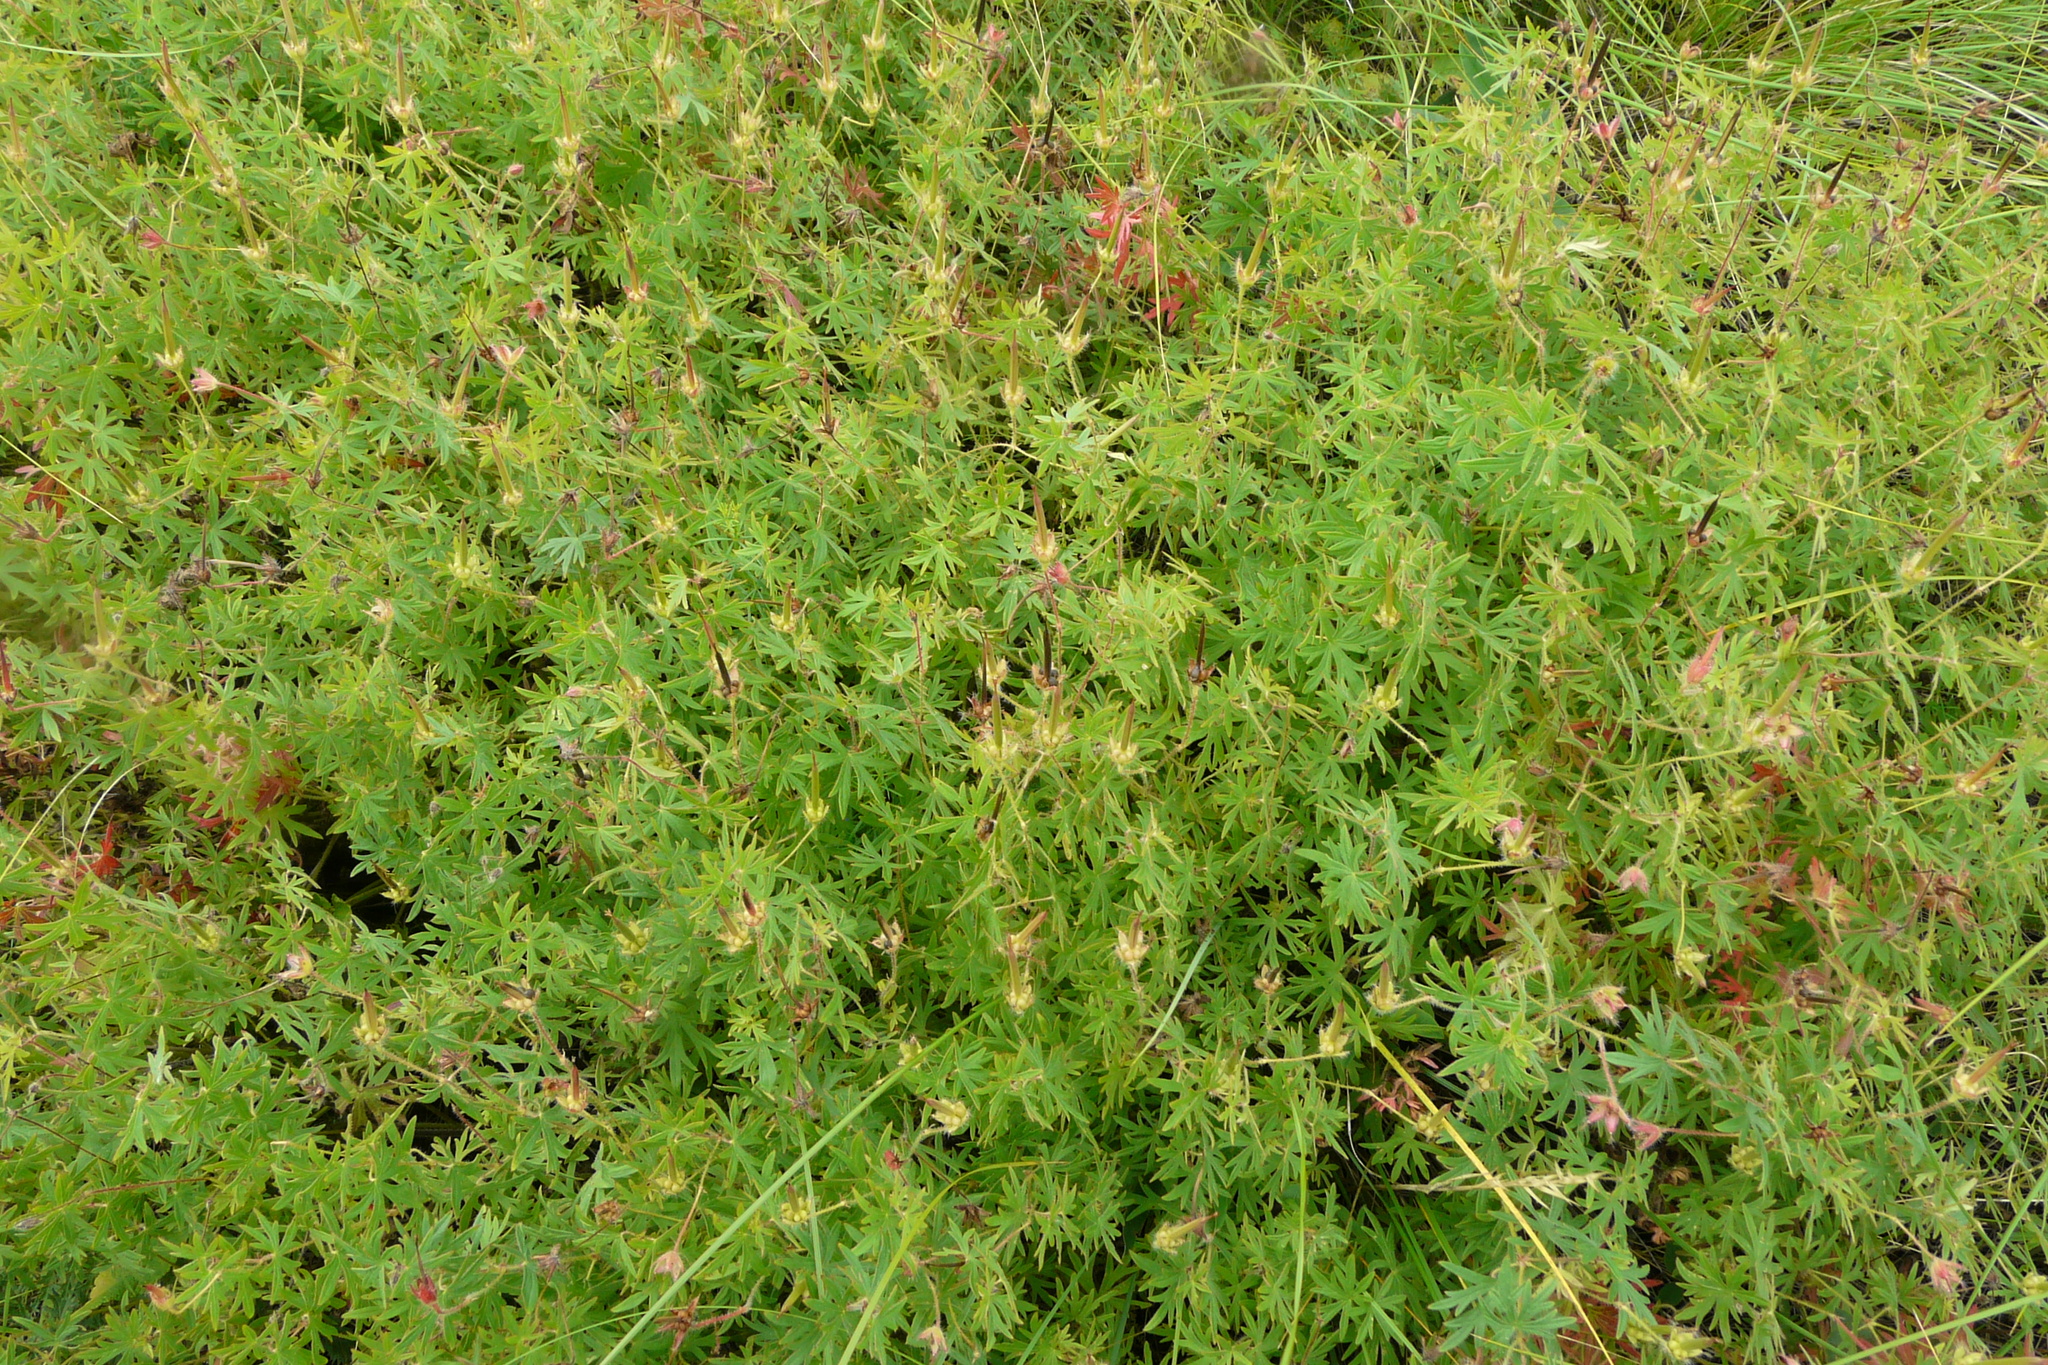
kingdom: Plantae
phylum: Tracheophyta
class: Magnoliopsida
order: Geraniales
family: Geraniaceae
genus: Geranium
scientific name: Geranium sanguineum
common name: Bloody crane's-bill
